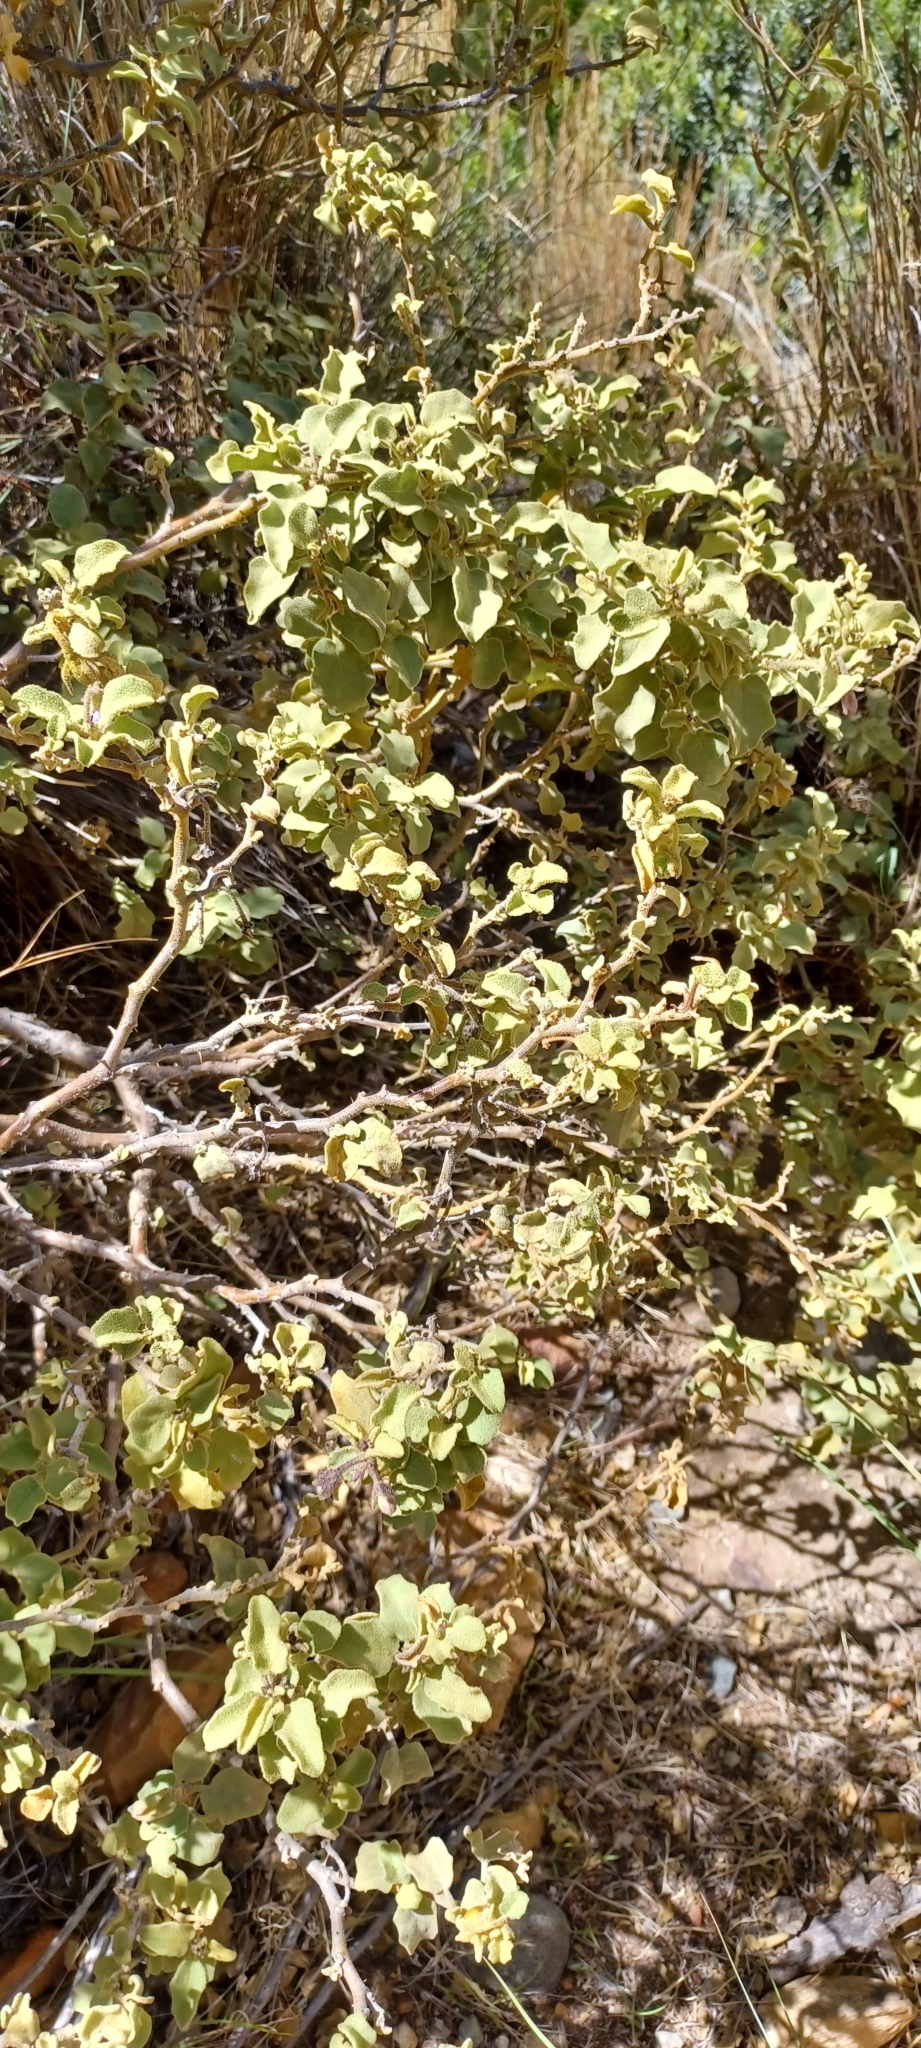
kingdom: Plantae
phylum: Tracheophyta
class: Magnoliopsida
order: Solanales
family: Solanaceae
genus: Solanum
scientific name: Solanum tomentosum
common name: Wild aubergine
